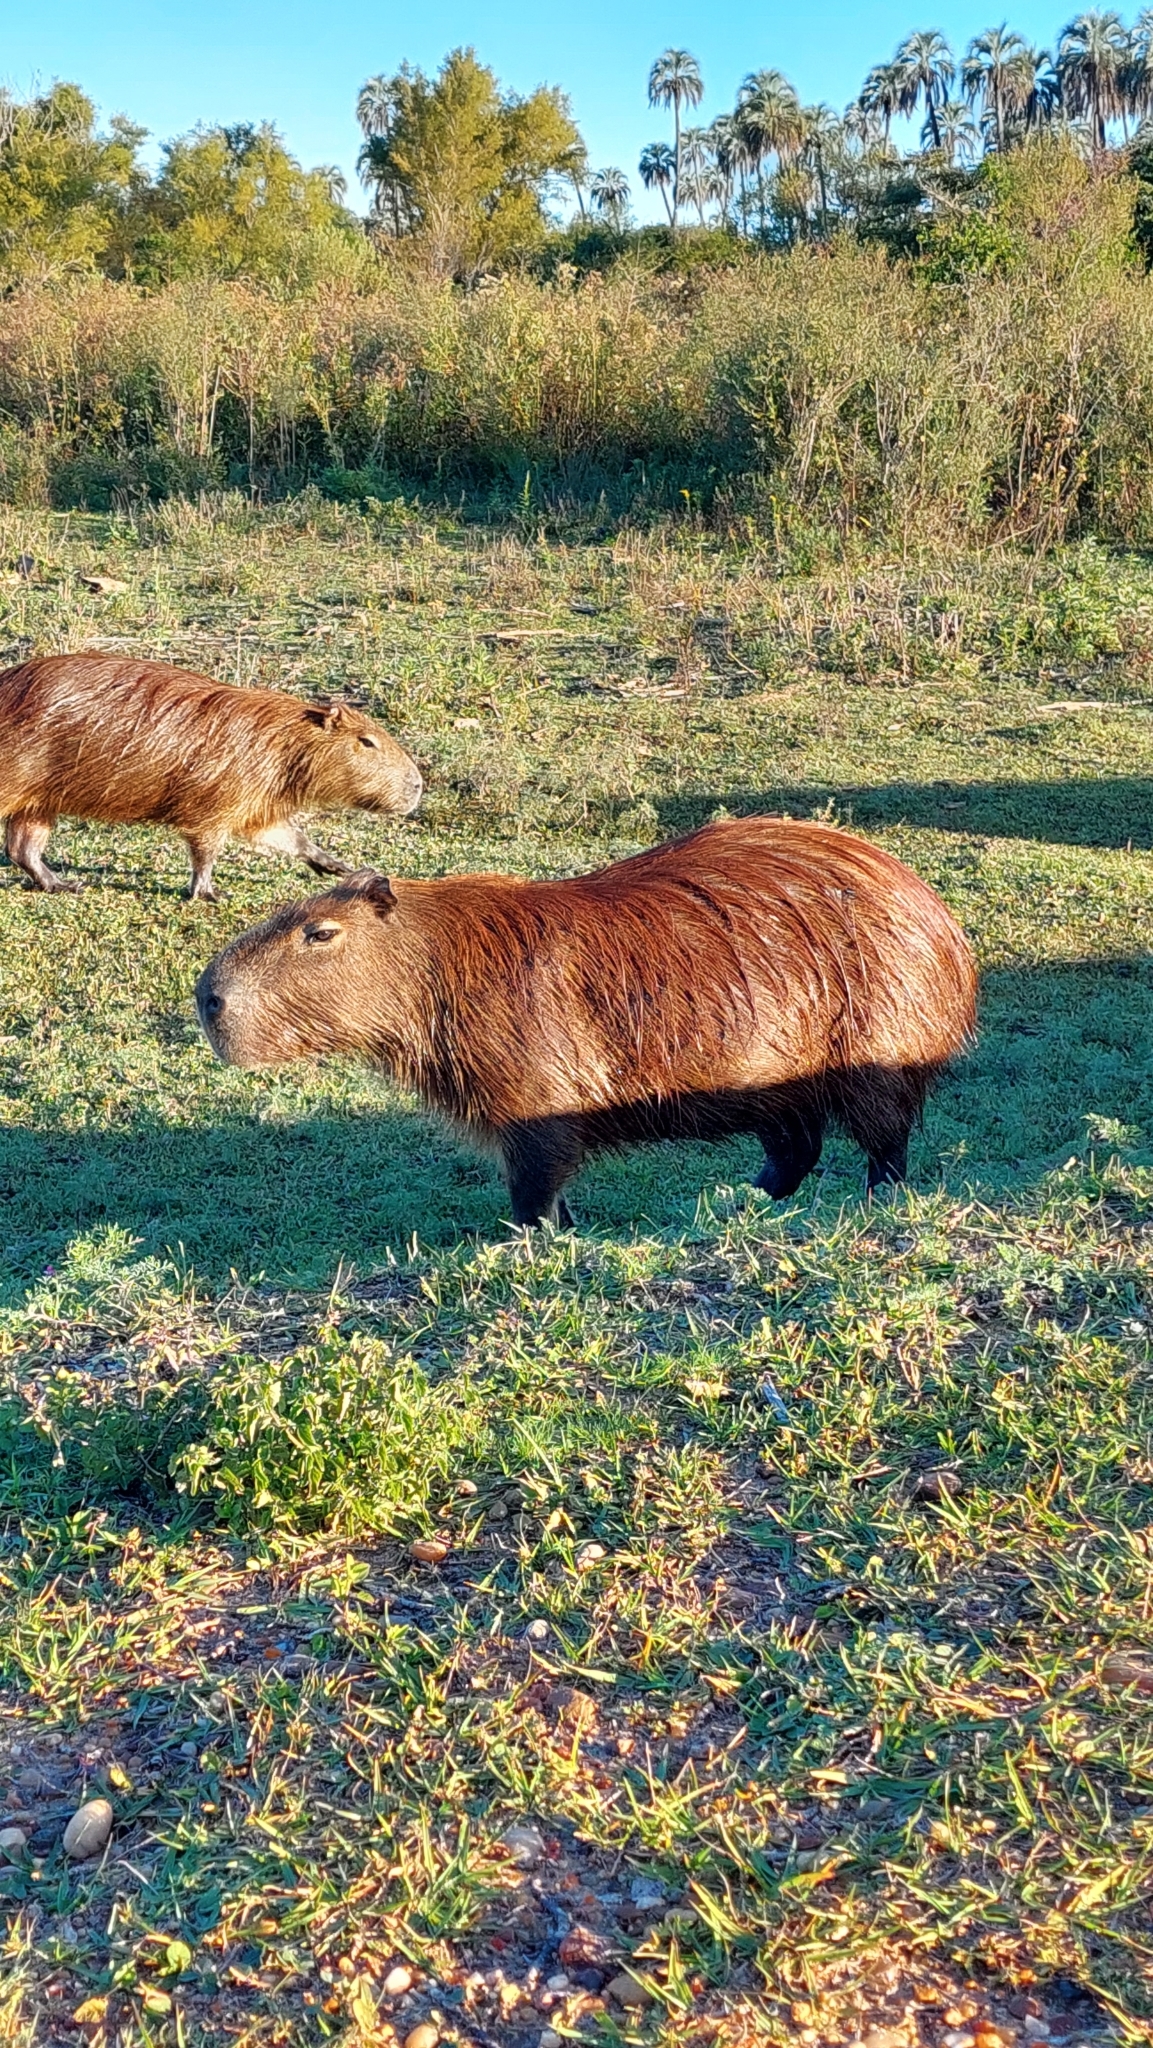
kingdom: Animalia
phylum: Chordata
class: Mammalia
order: Rodentia
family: Caviidae
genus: Hydrochoerus
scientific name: Hydrochoerus hydrochaeris
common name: Capybara
